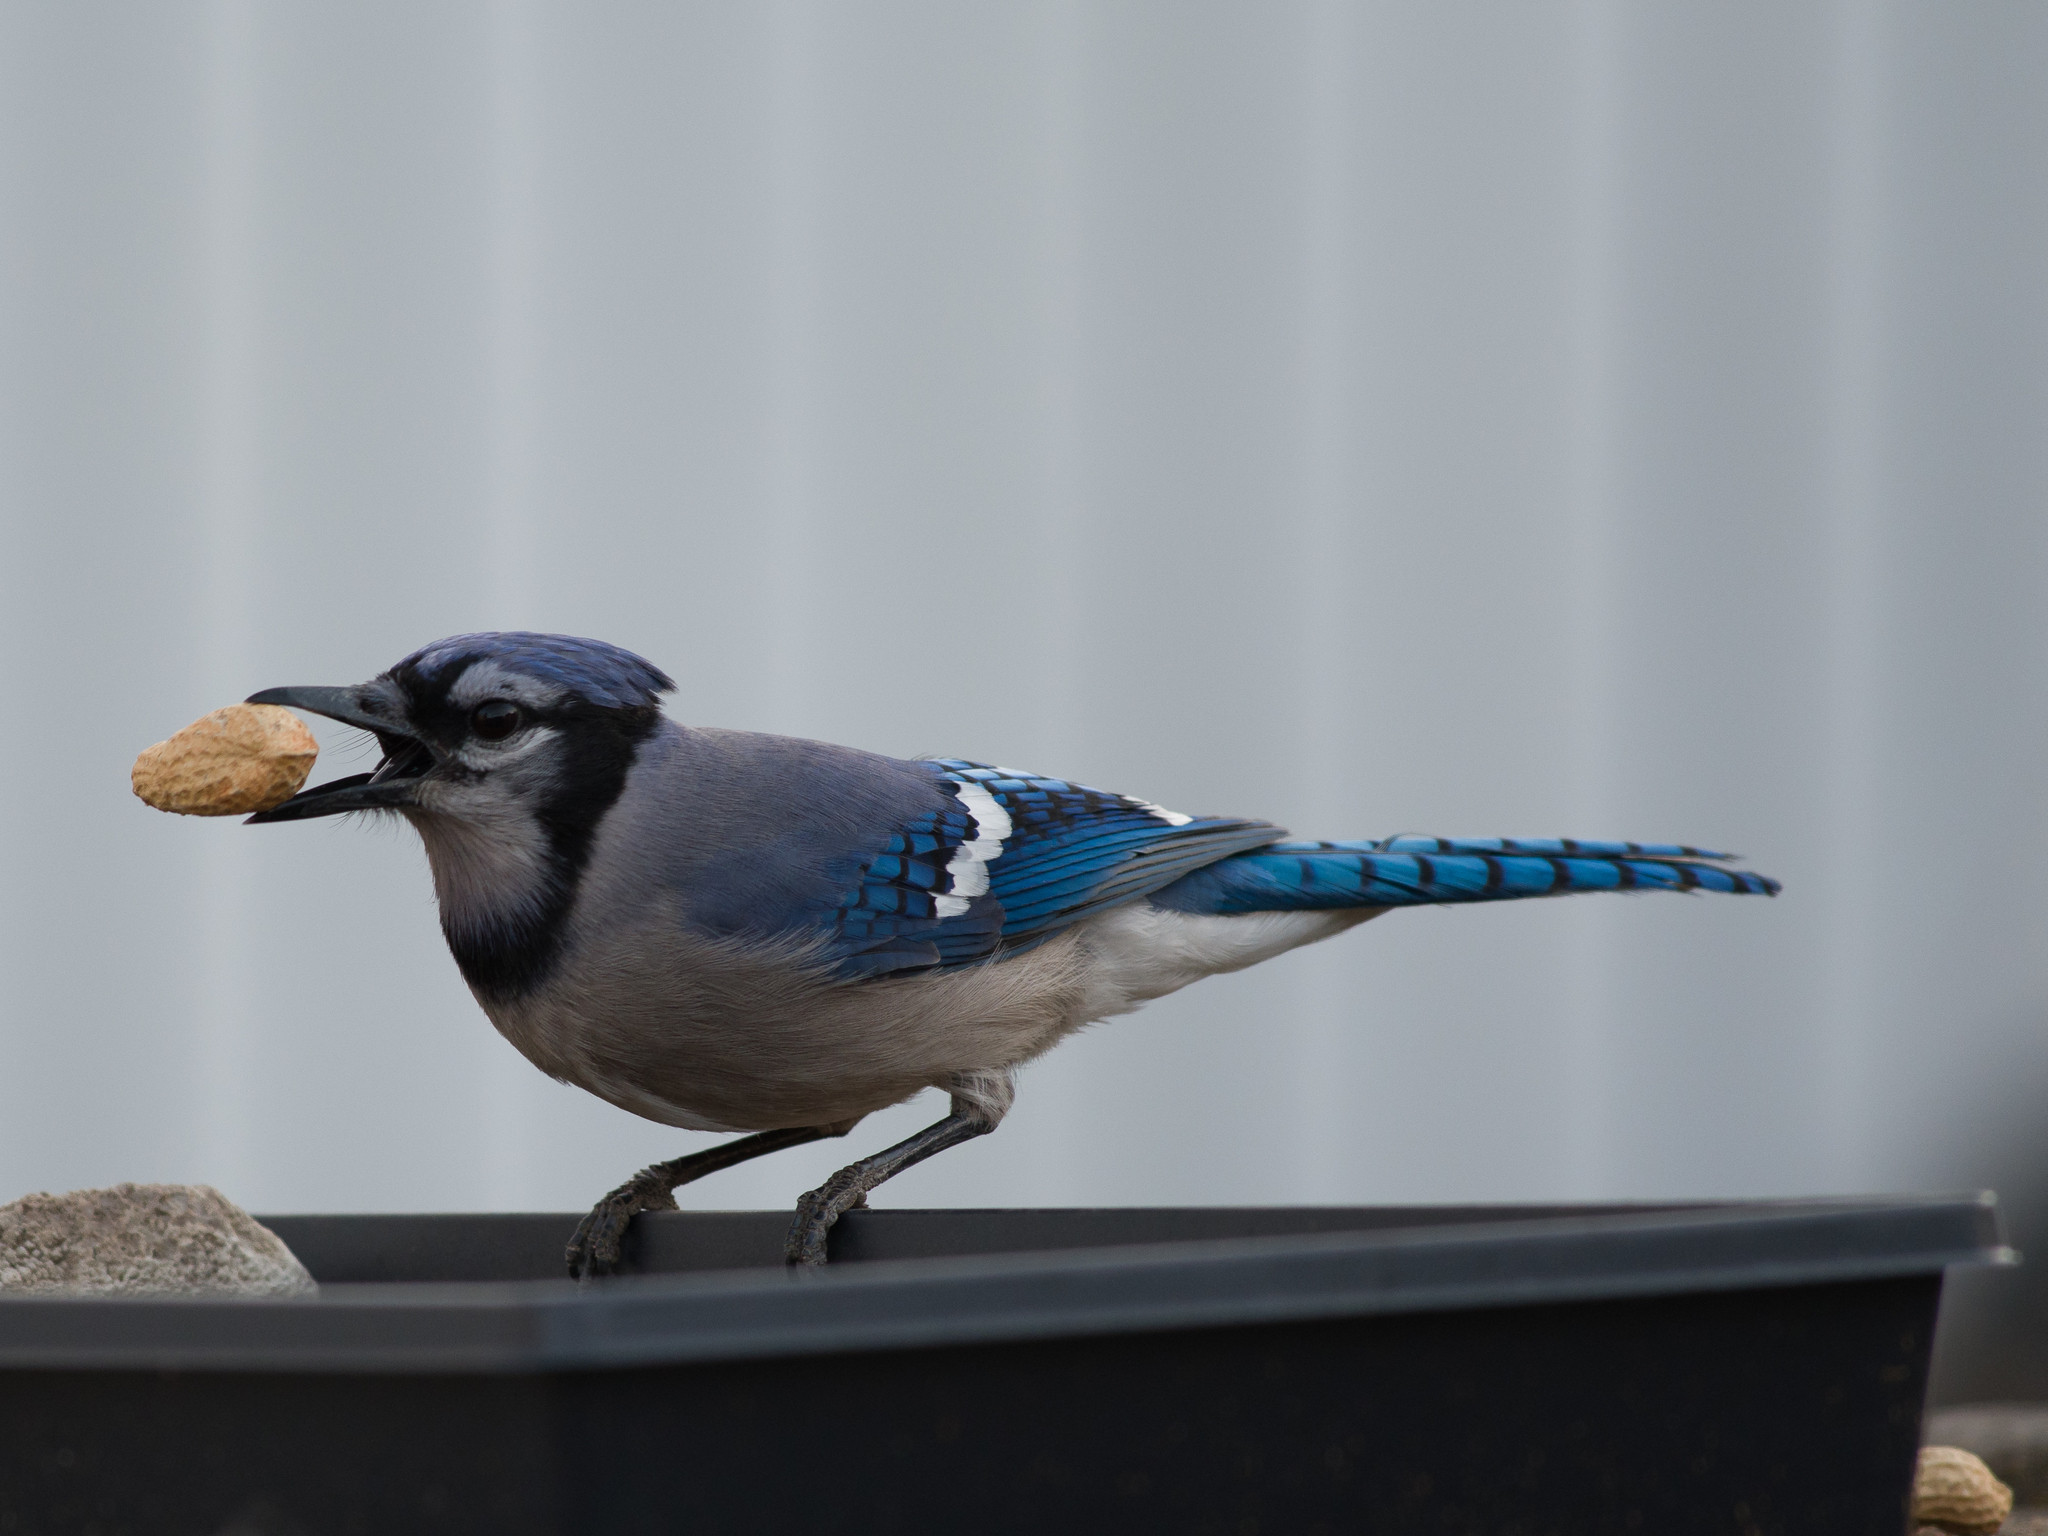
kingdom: Animalia
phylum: Chordata
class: Aves
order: Passeriformes
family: Corvidae
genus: Cyanocitta
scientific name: Cyanocitta cristata
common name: Blue jay
